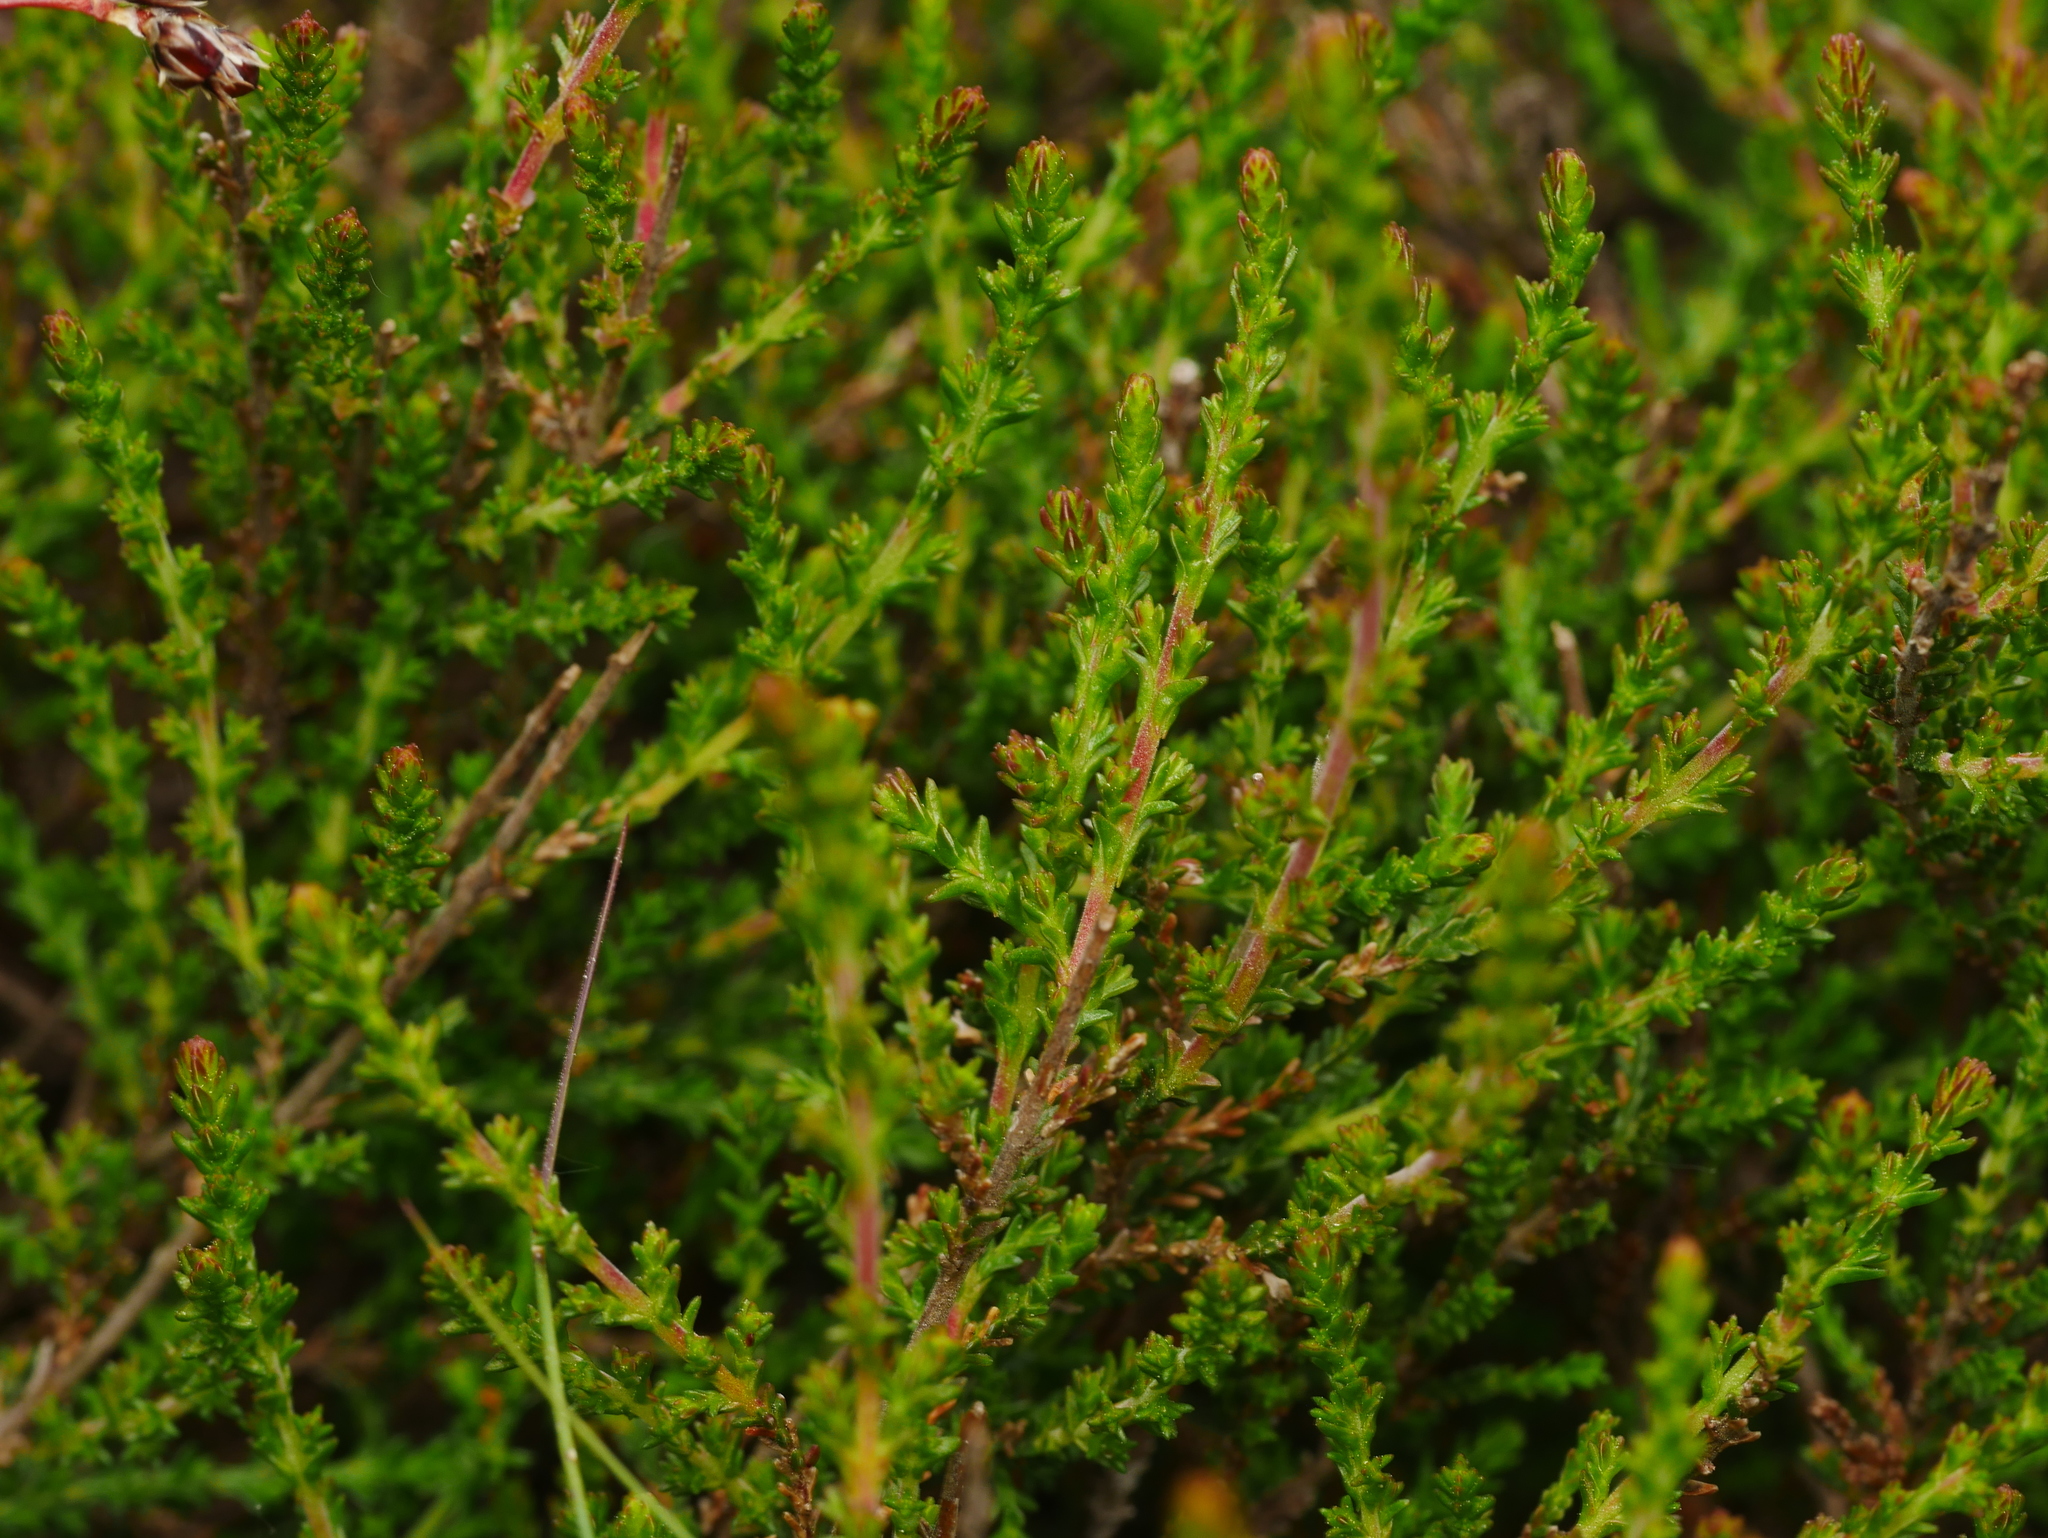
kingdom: Plantae
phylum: Tracheophyta
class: Magnoliopsida
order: Ericales
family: Ericaceae
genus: Calluna
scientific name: Calluna vulgaris
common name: Heather
